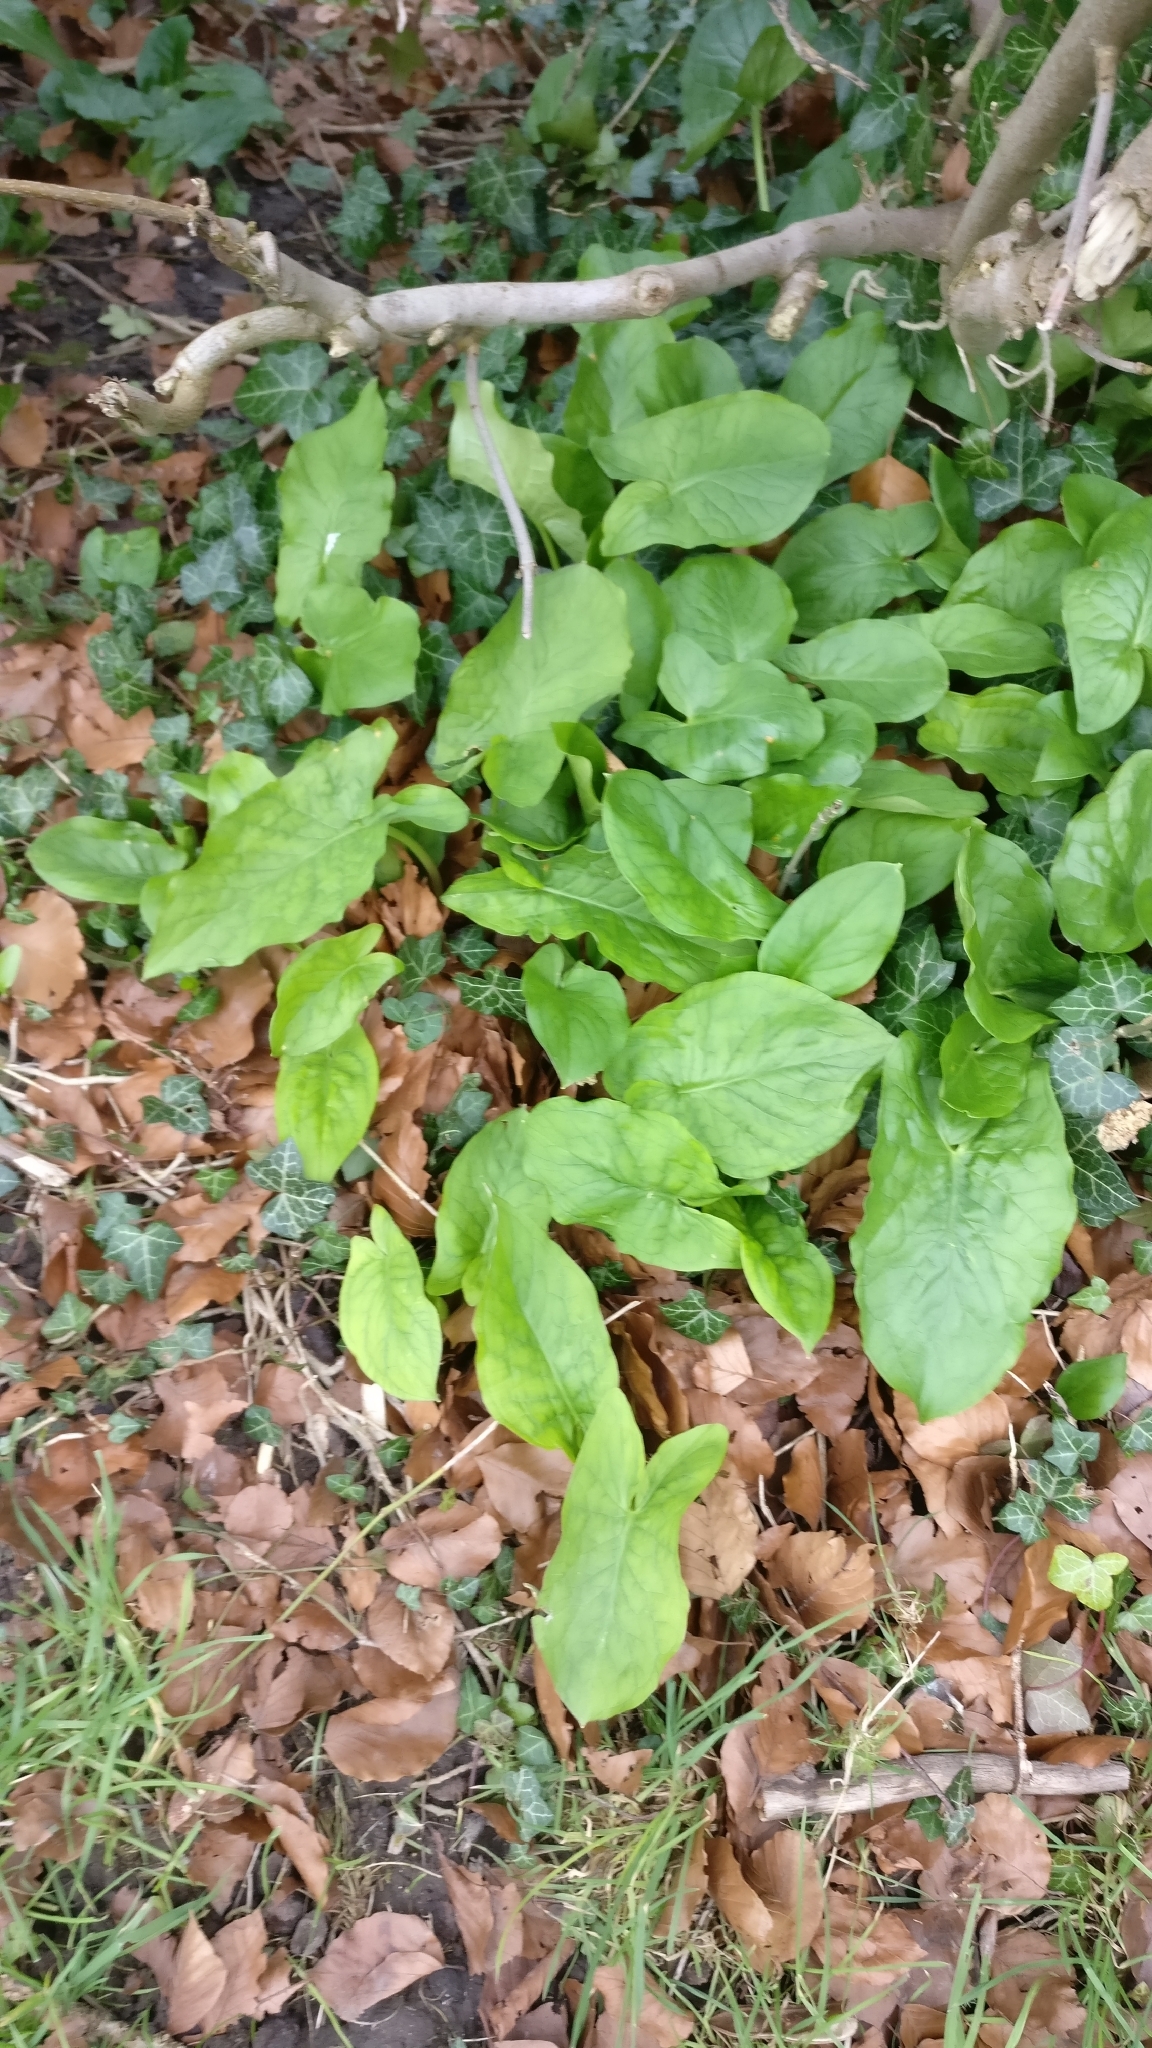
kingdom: Plantae
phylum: Tracheophyta
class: Liliopsida
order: Alismatales
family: Araceae
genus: Arum
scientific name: Arum maculatum
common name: Lords-and-ladies
